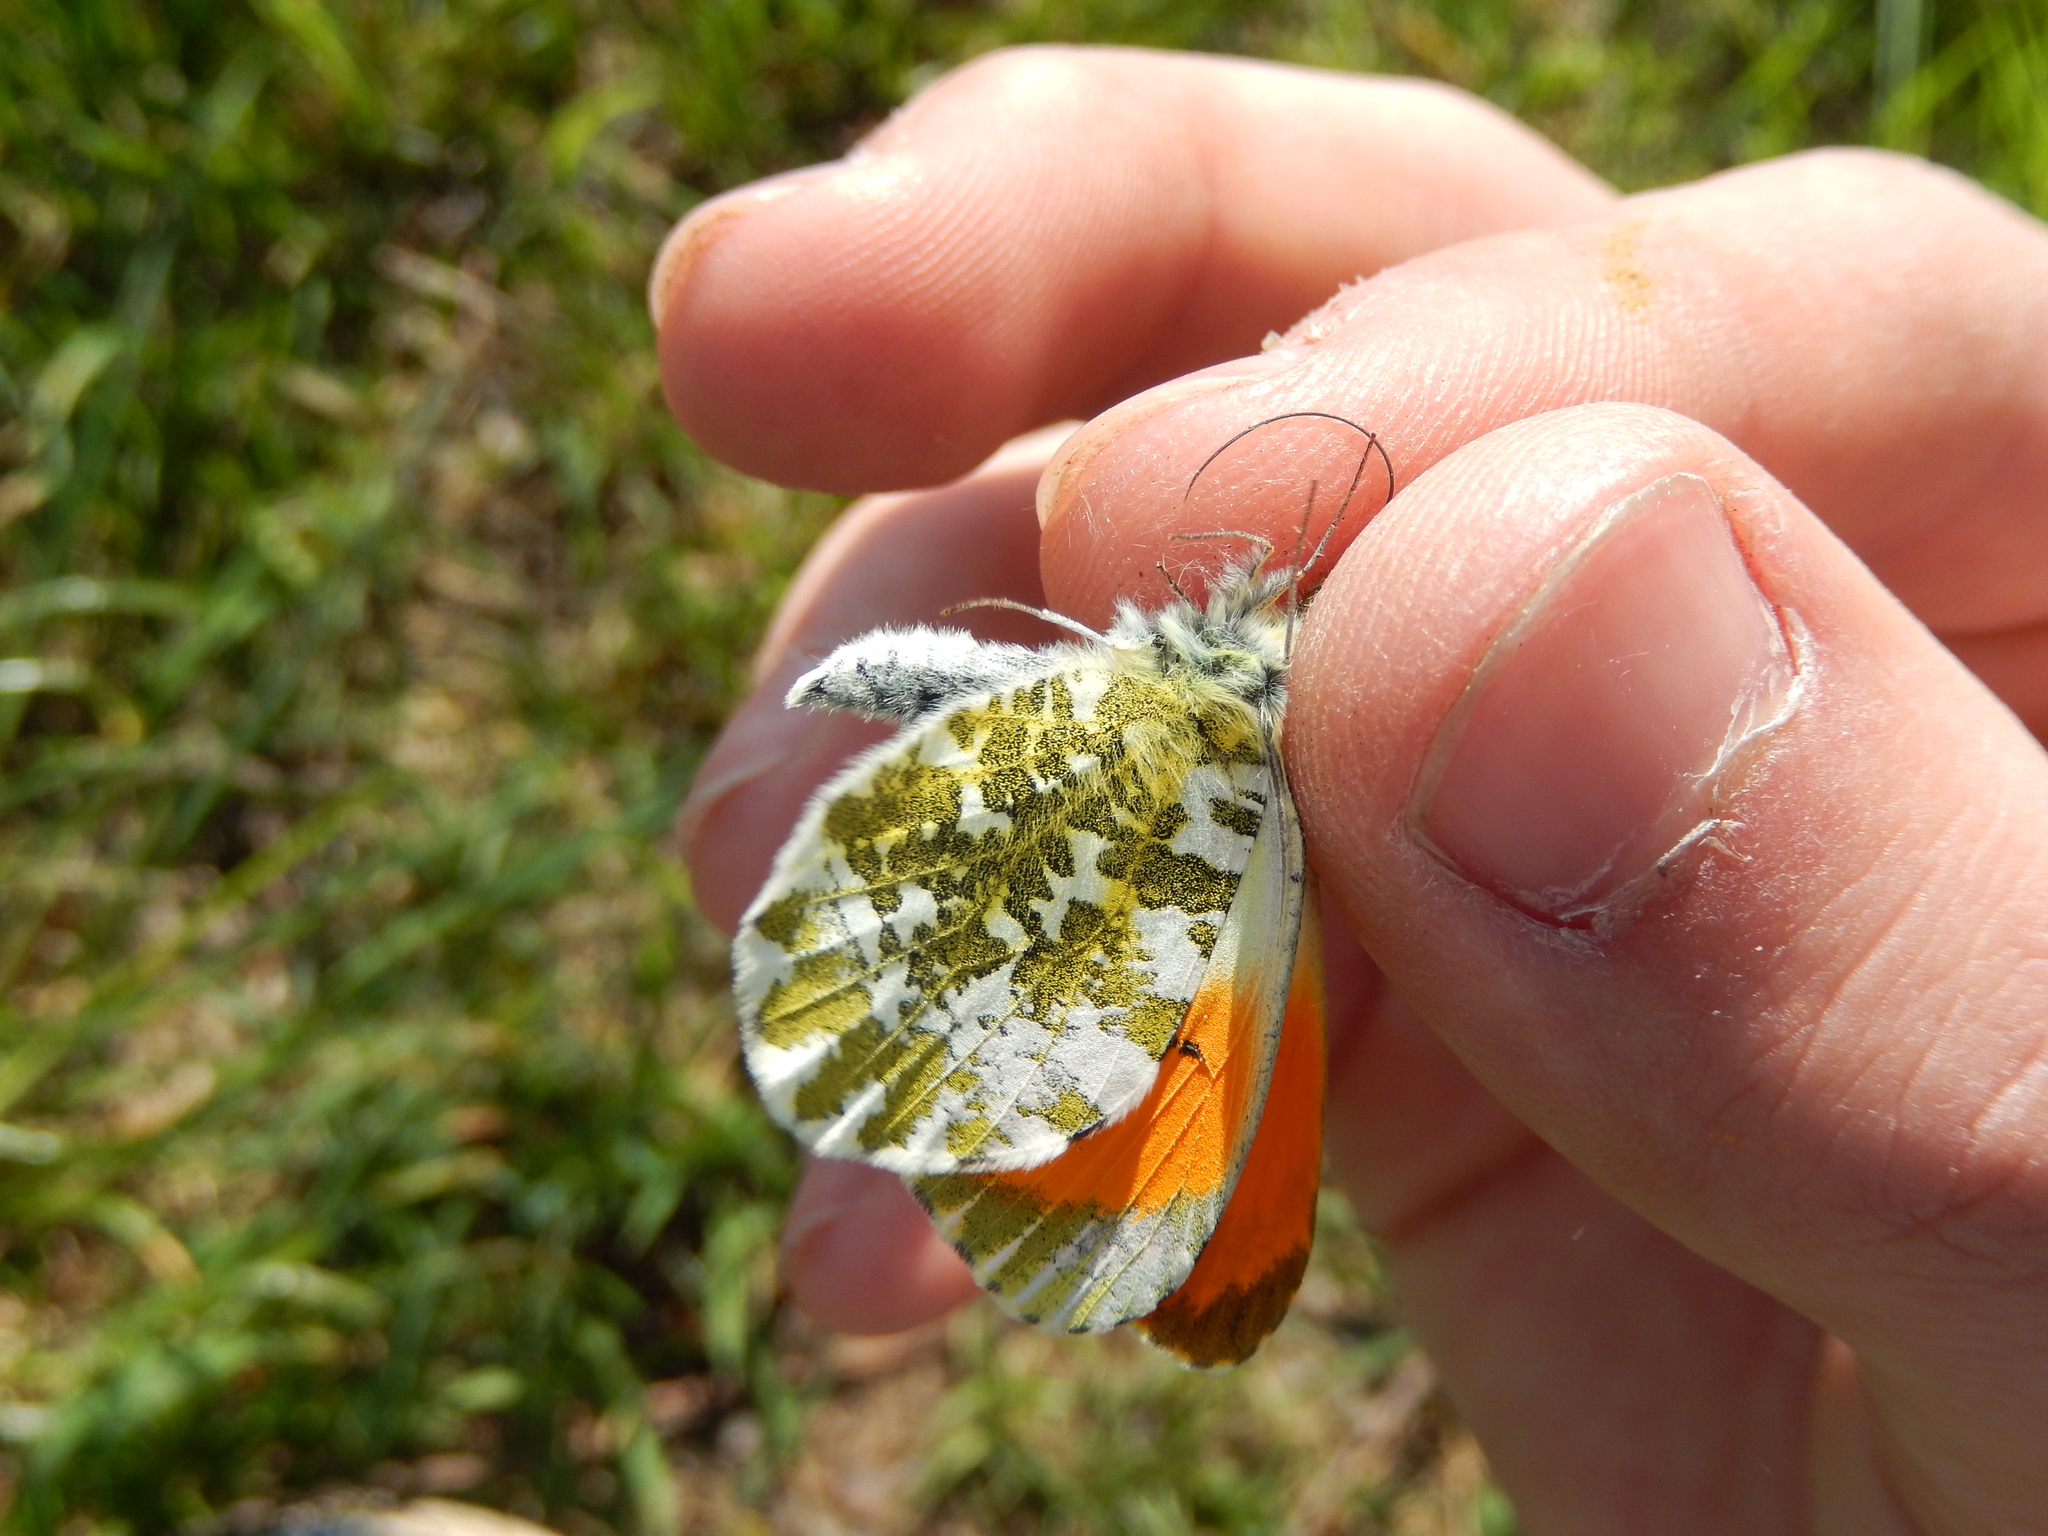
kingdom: Animalia
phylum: Arthropoda
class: Insecta
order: Lepidoptera
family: Pieridae
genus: Anthocharis
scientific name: Anthocharis cardamines
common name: Orange-tip
